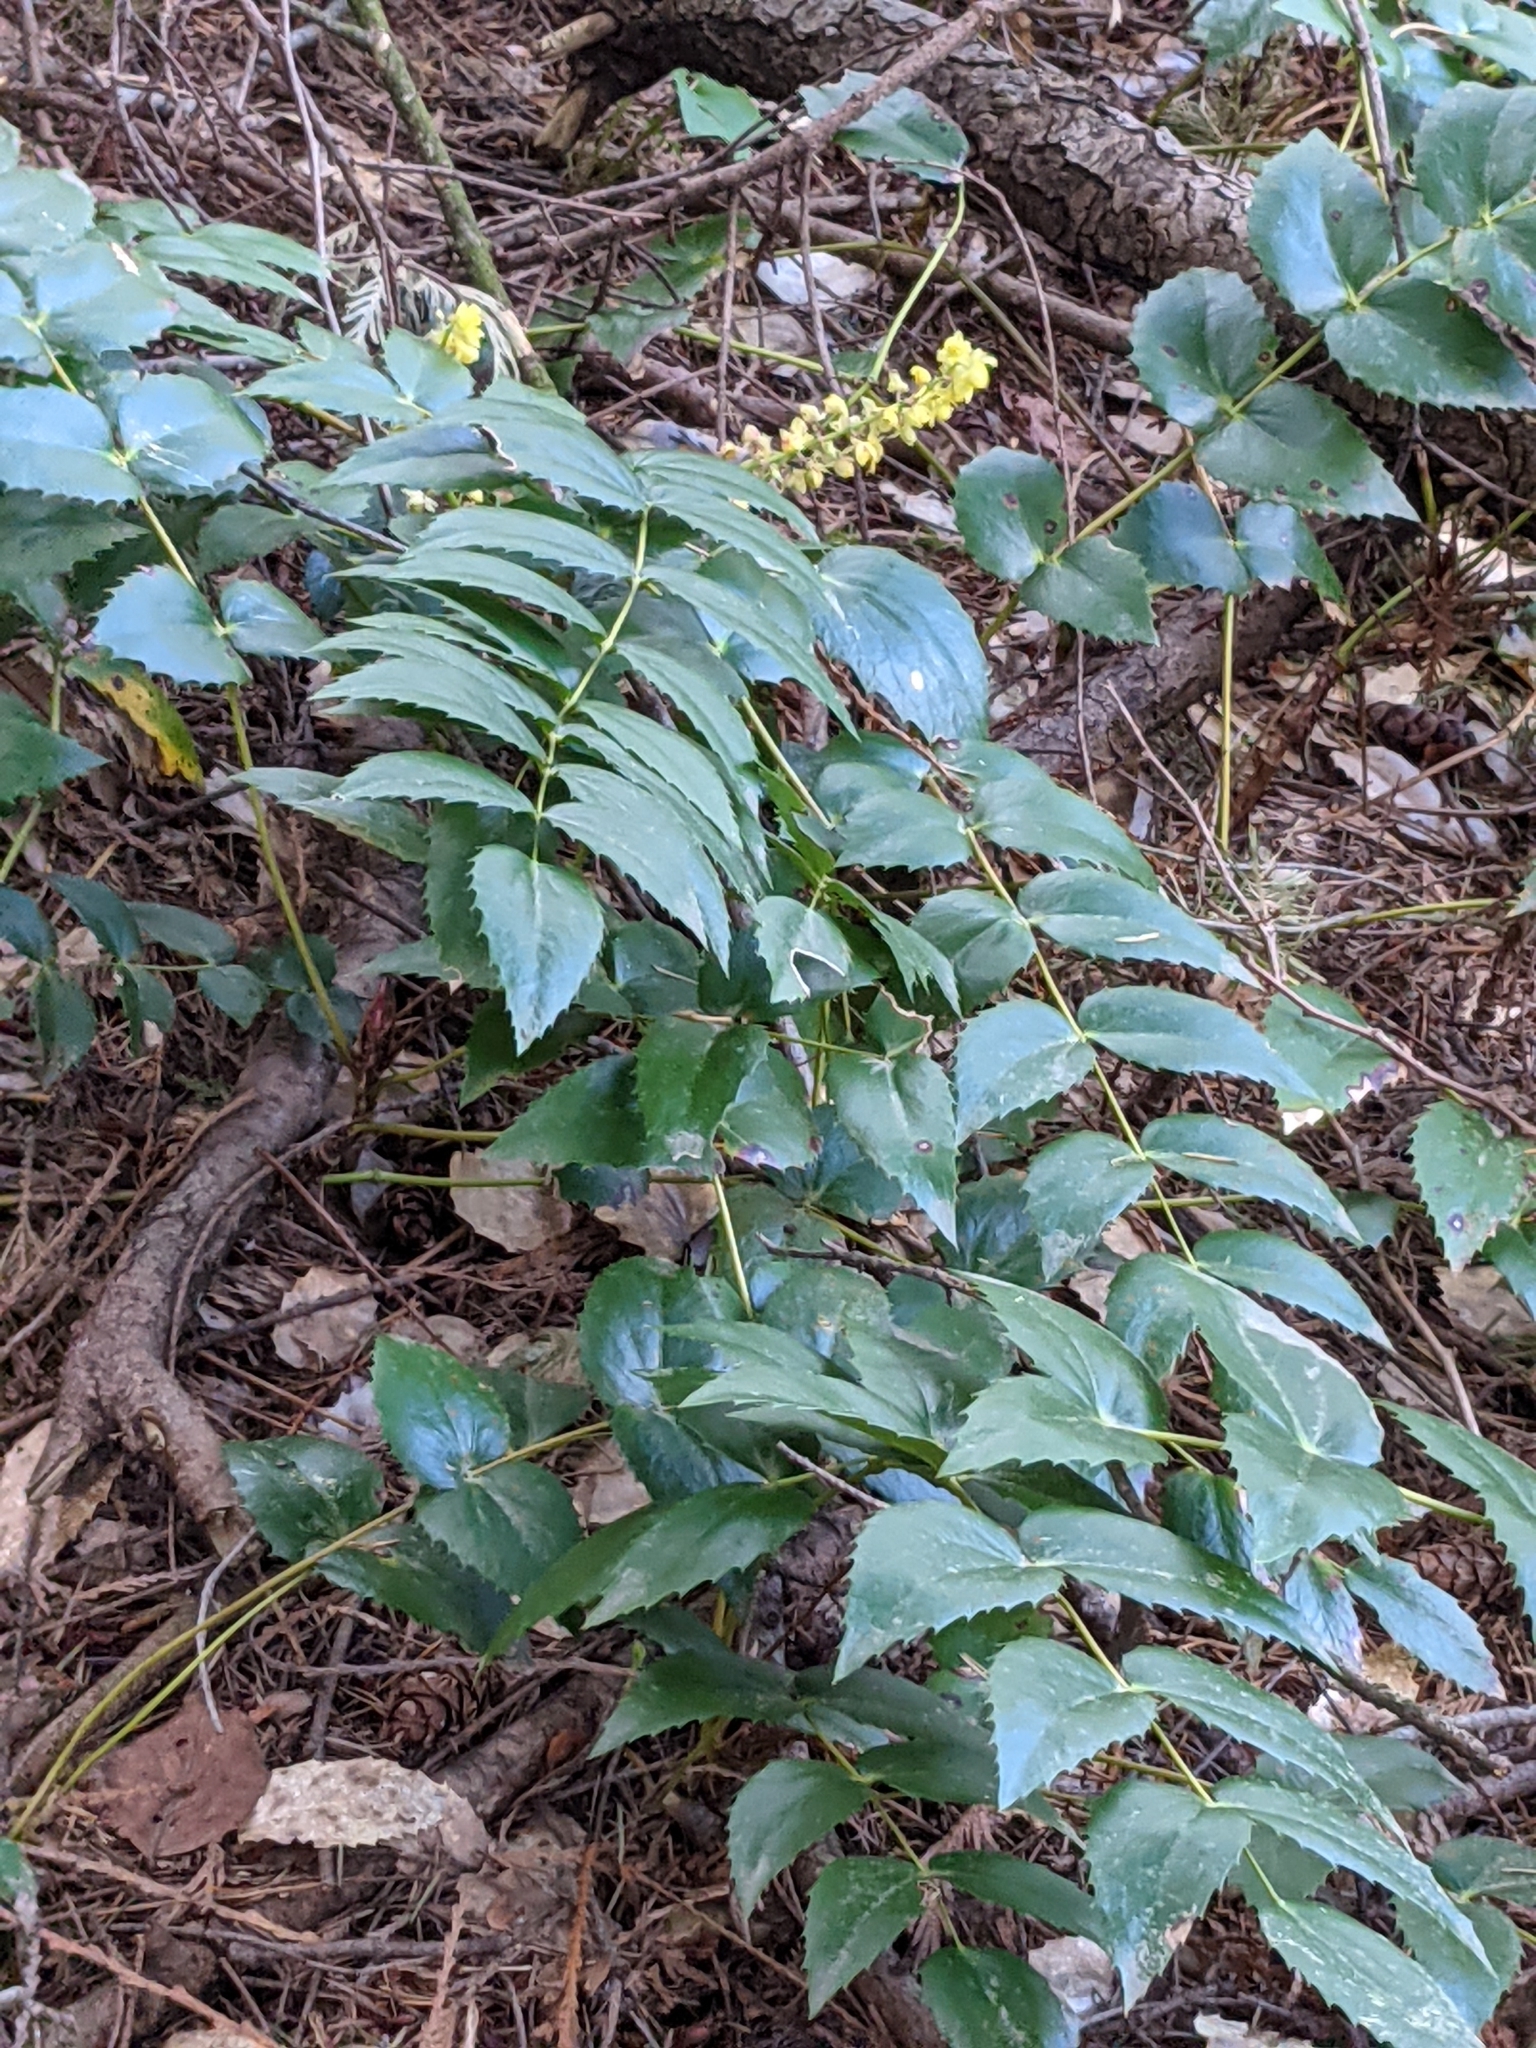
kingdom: Plantae
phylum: Tracheophyta
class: Magnoliopsida
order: Ranunculales
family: Berberidaceae
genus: Mahonia
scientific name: Mahonia nervosa
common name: Cascade oregon-grape
